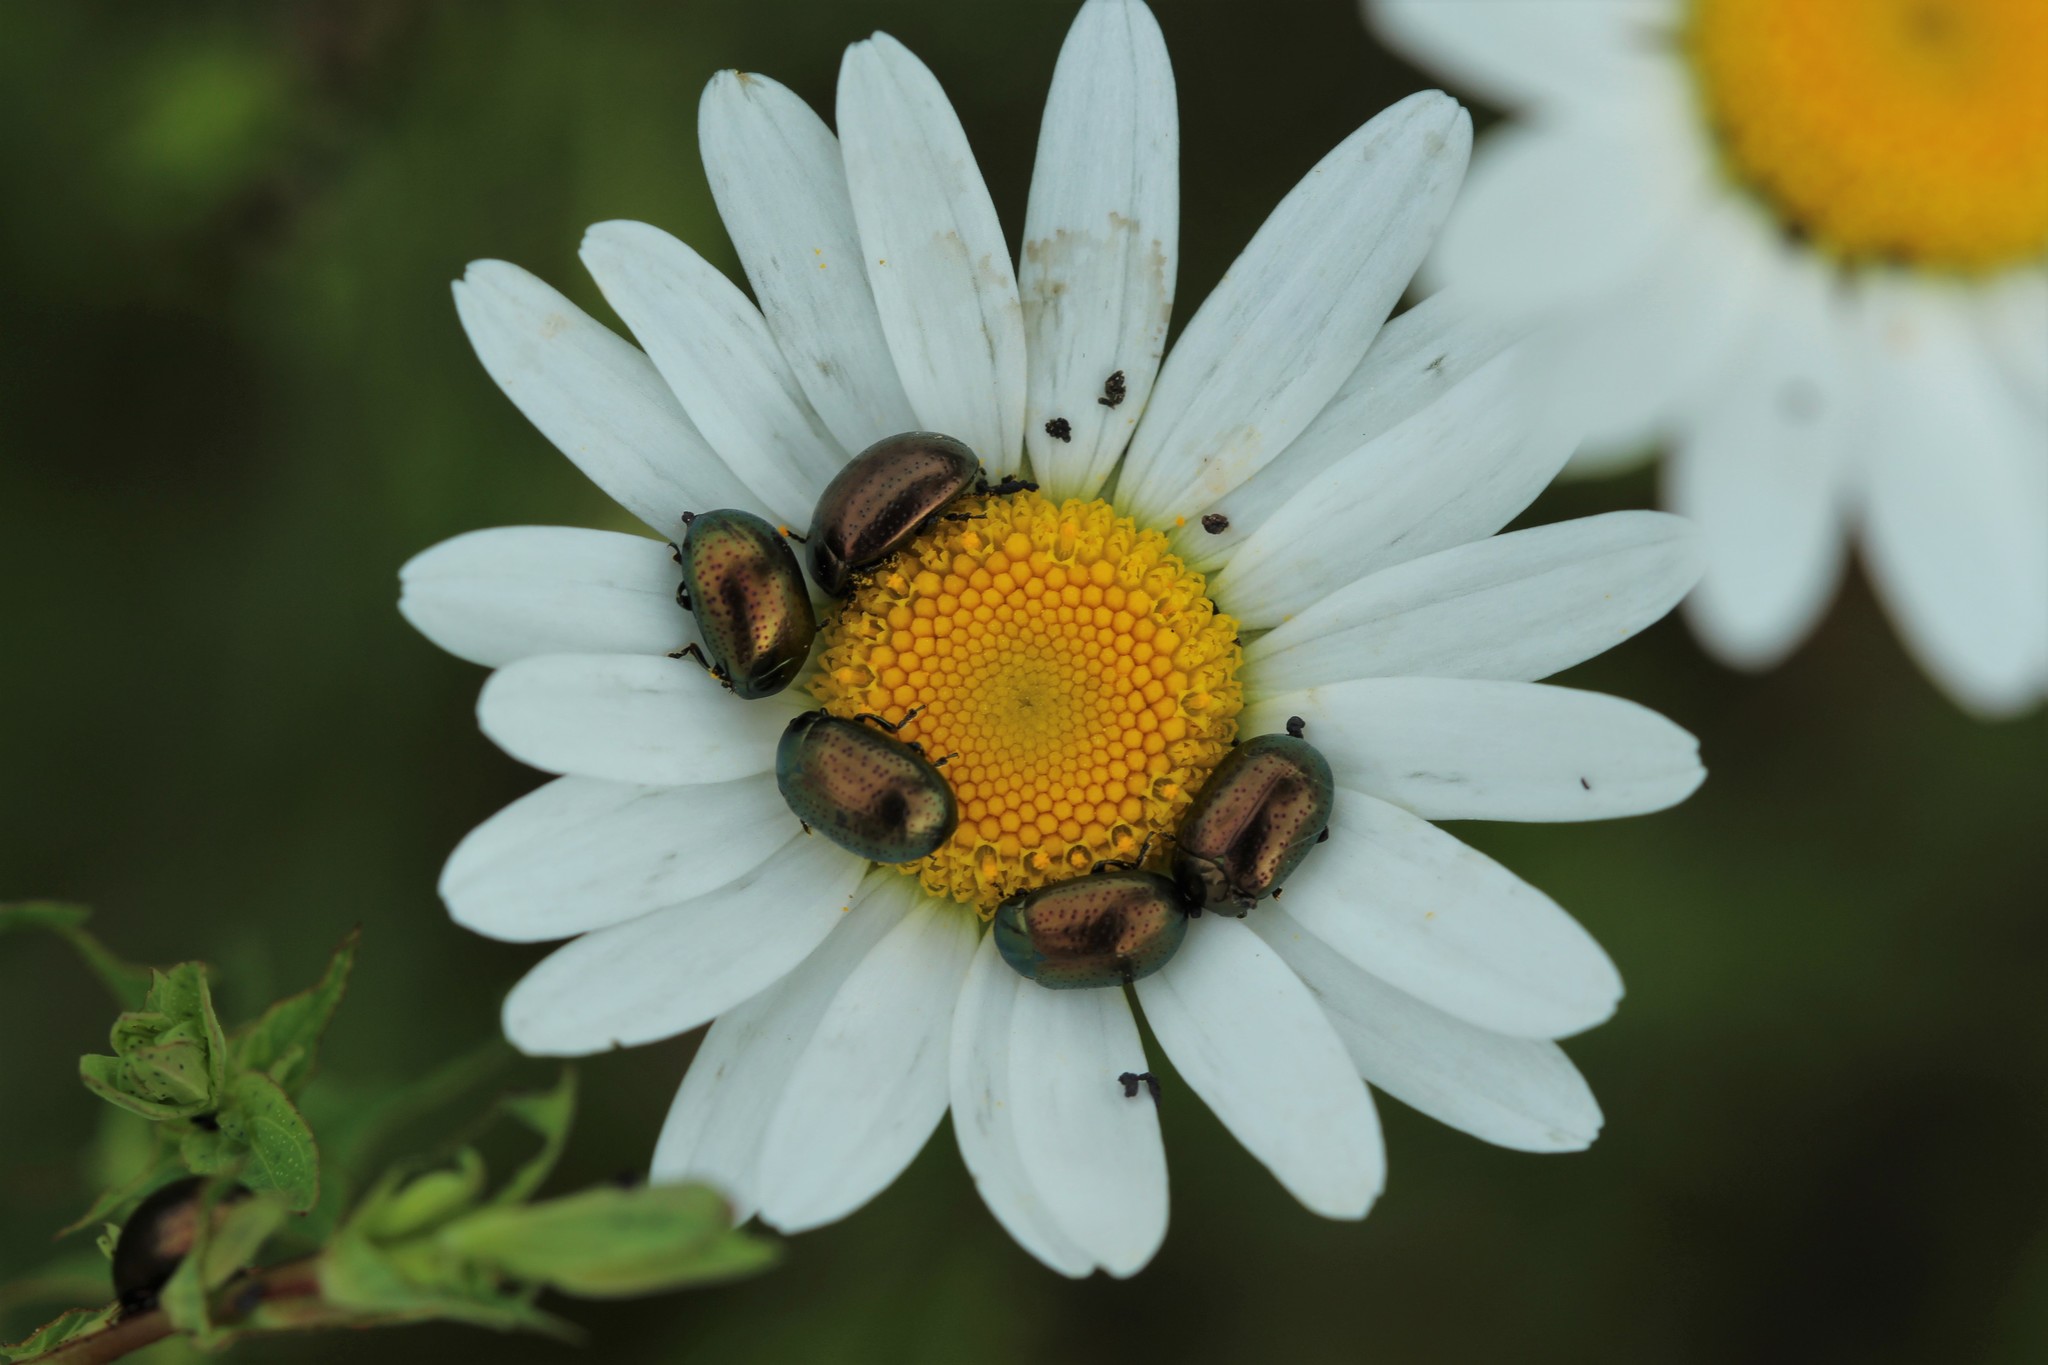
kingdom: Animalia
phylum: Arthropoda
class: Insecta
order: Coleoptera
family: Chrysomelidae
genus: Chrysolina
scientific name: Chrysolina hyperici
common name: St. johnswort beetle
